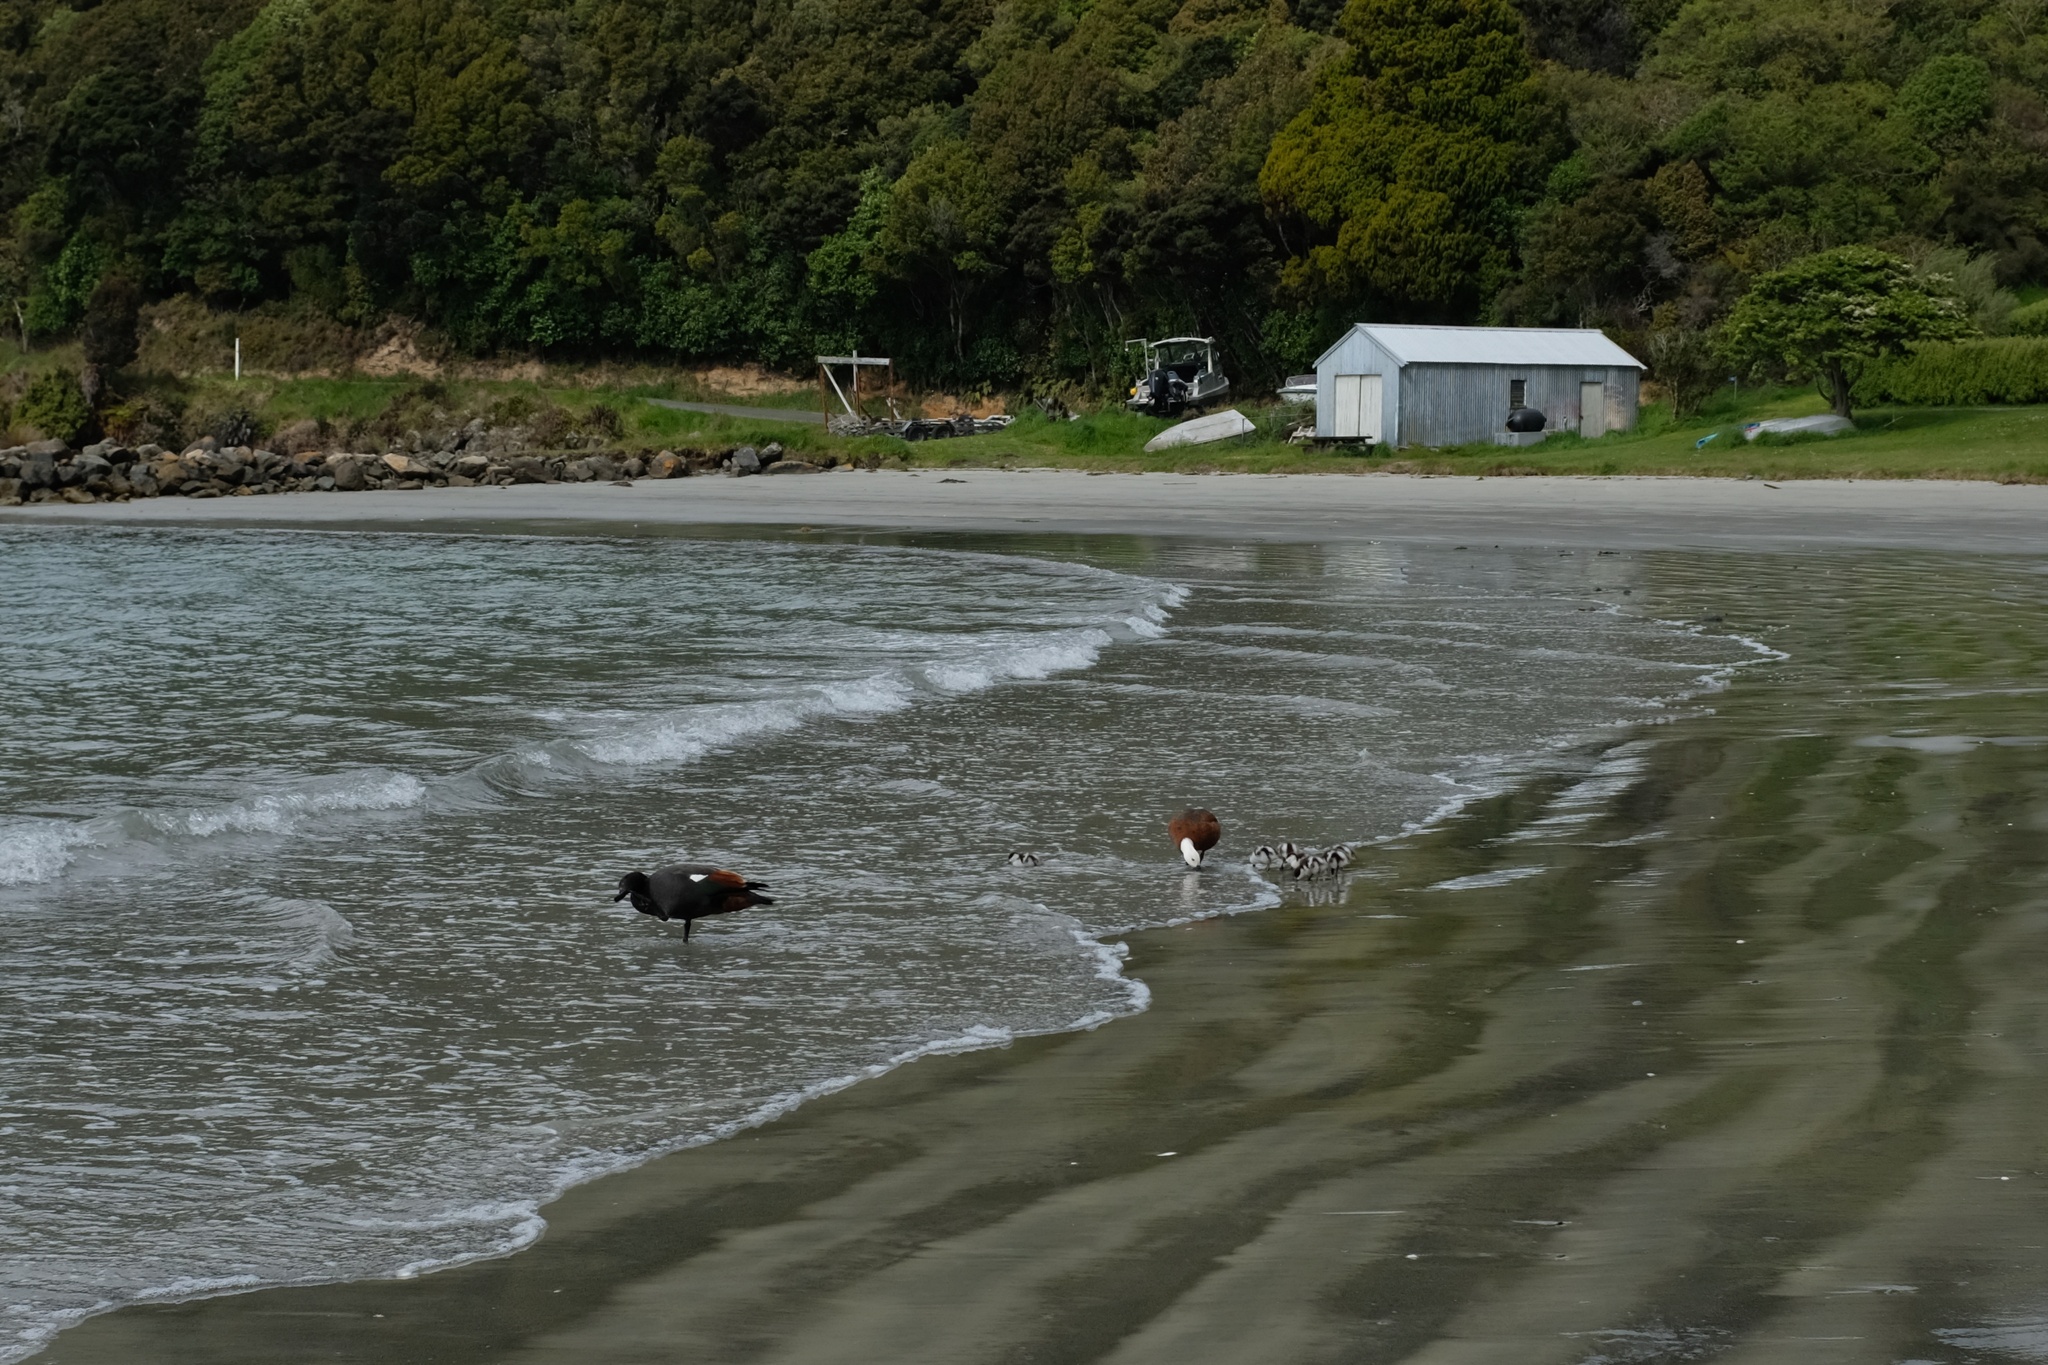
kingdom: Animalia
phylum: Chordata
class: Aves
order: Anseriformes
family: Anatidae
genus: Tadorna
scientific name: Tadorna variegata
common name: Paradise shelduck
